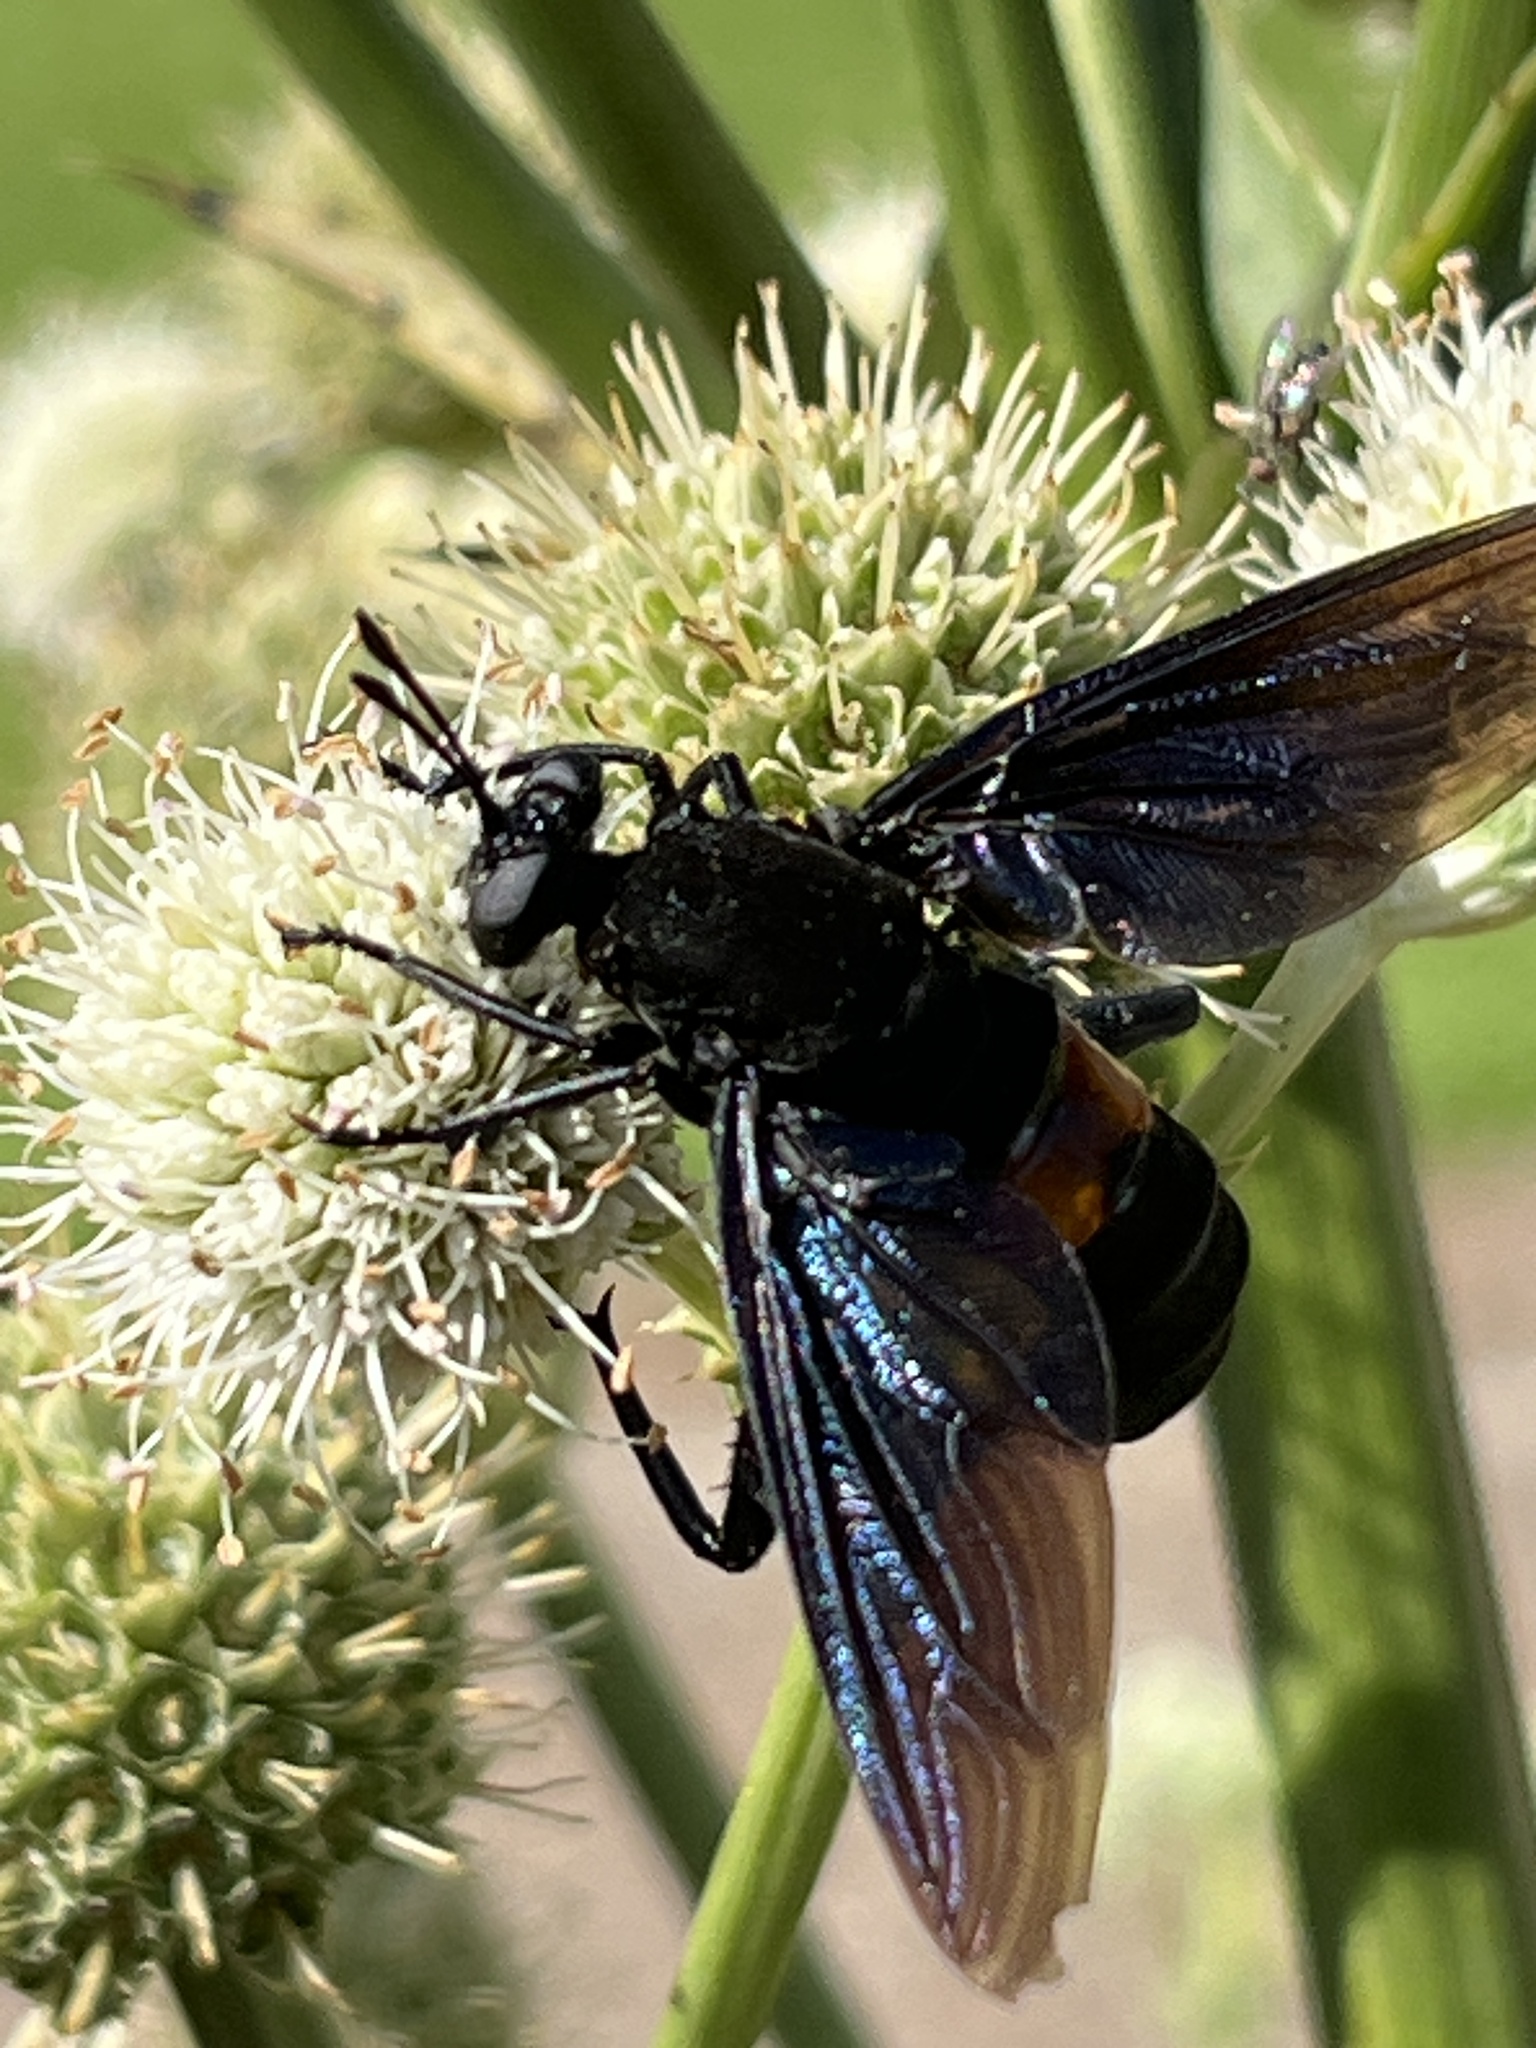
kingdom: Animalia
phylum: Arthropoda
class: Insecta
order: Diptera
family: Mydidae
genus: Mydas
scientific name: Mydas clavatus
